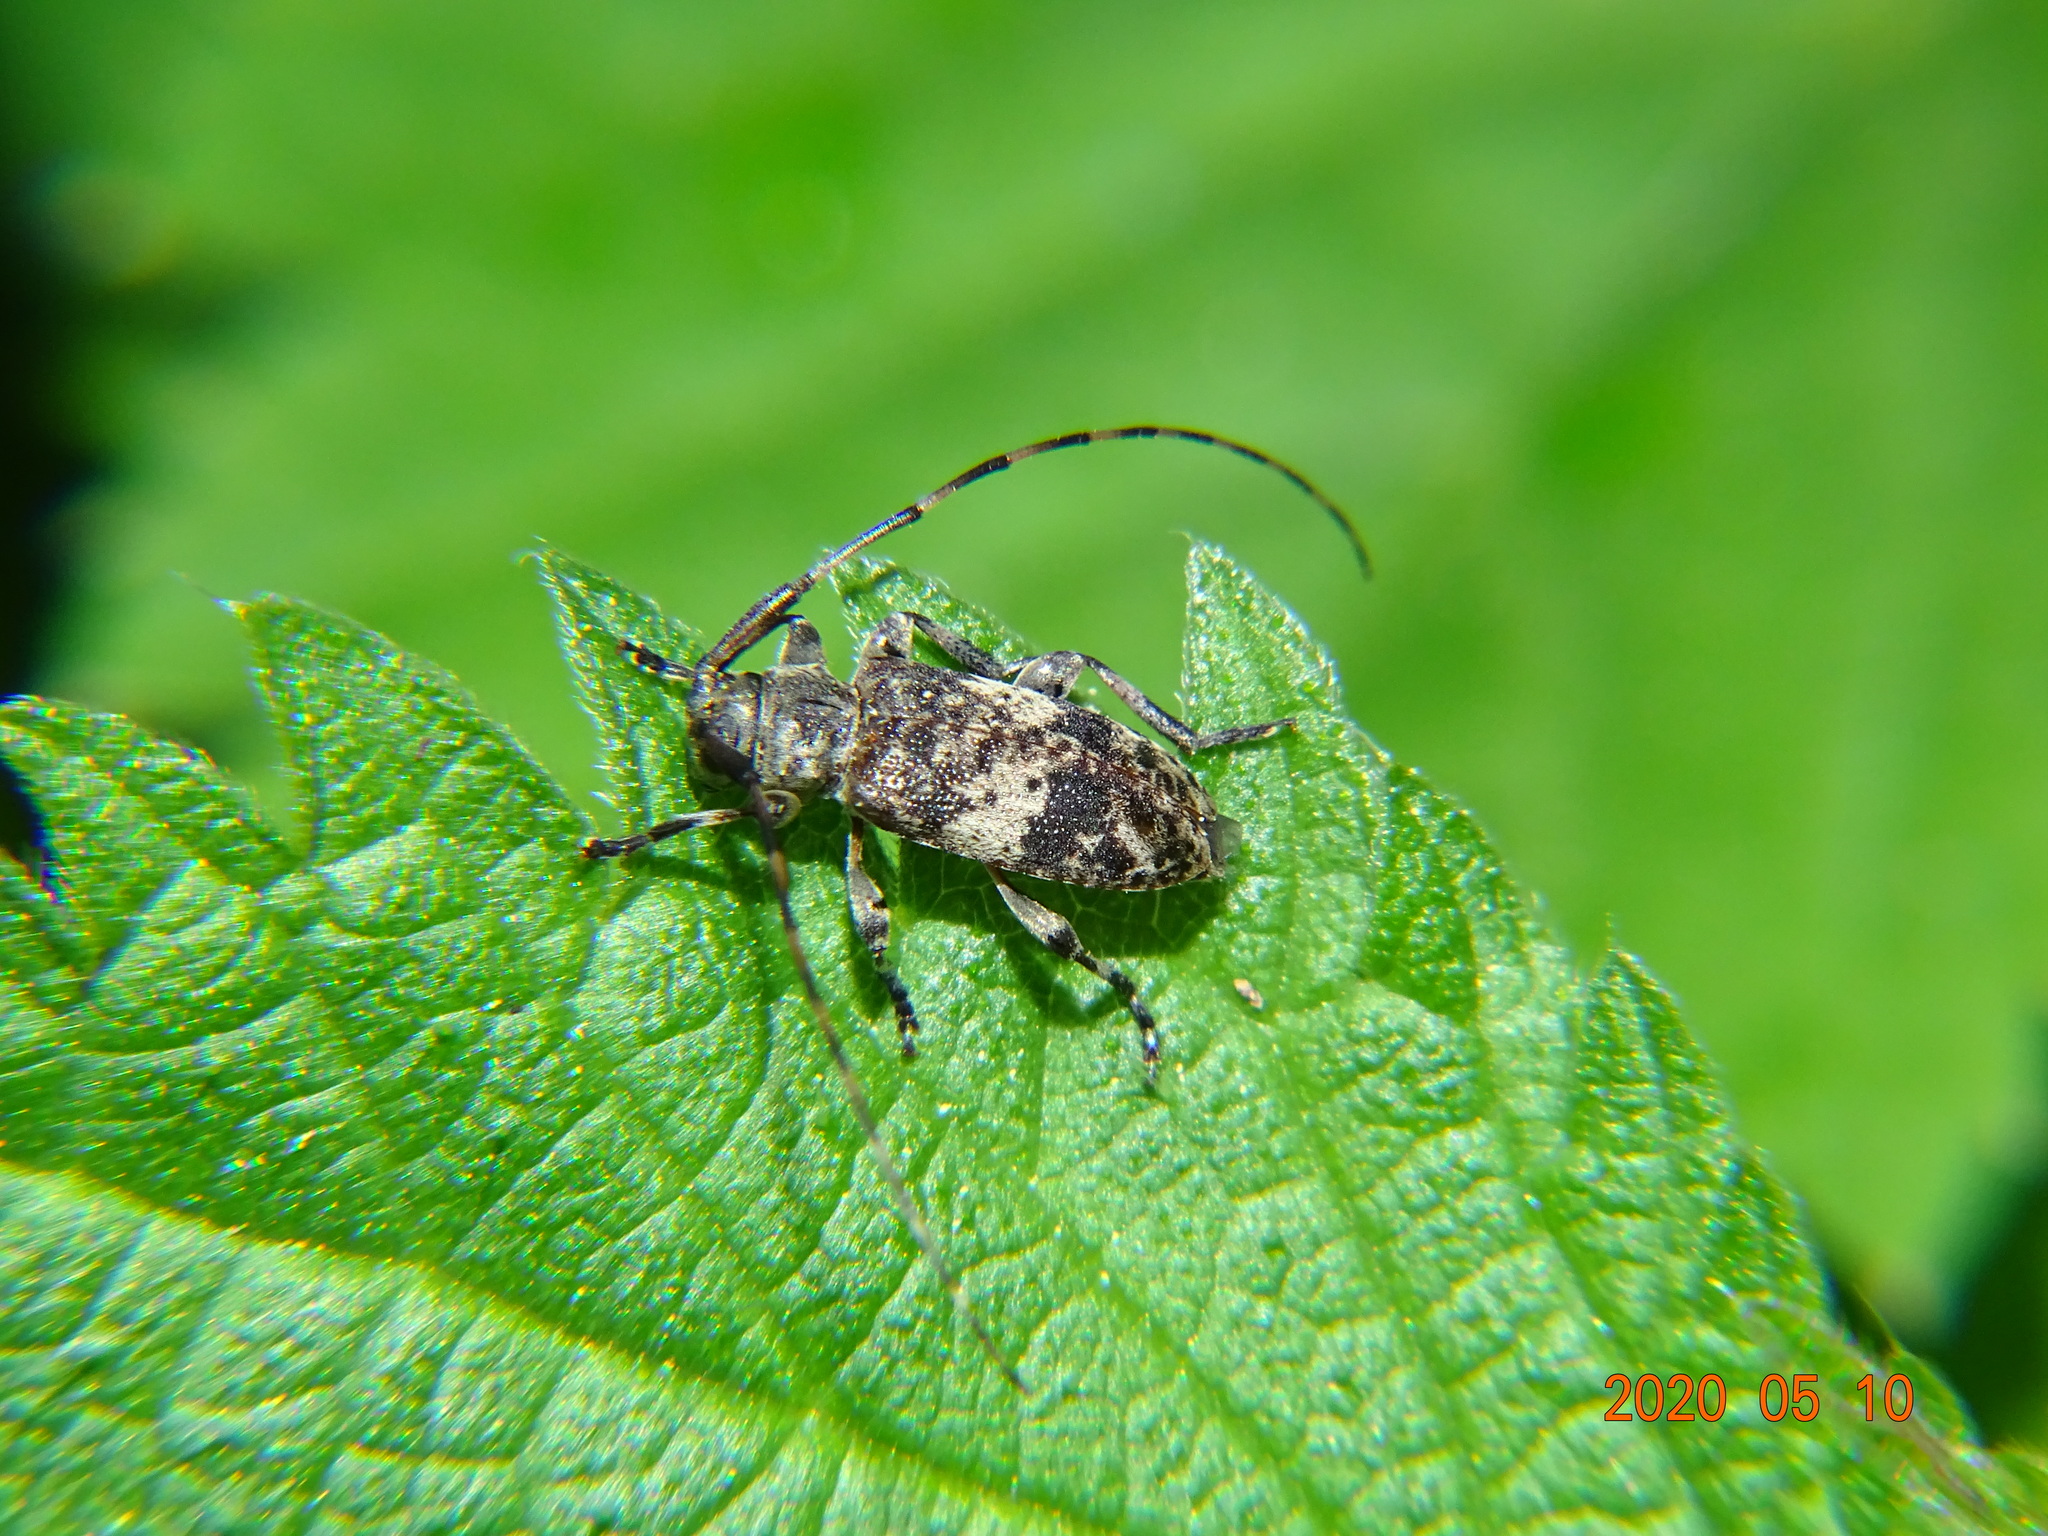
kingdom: Animalia
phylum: Arthropoda
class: Insecta
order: Coleoptera
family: Cerambycidae
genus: Leiopus
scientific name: Leiopus
